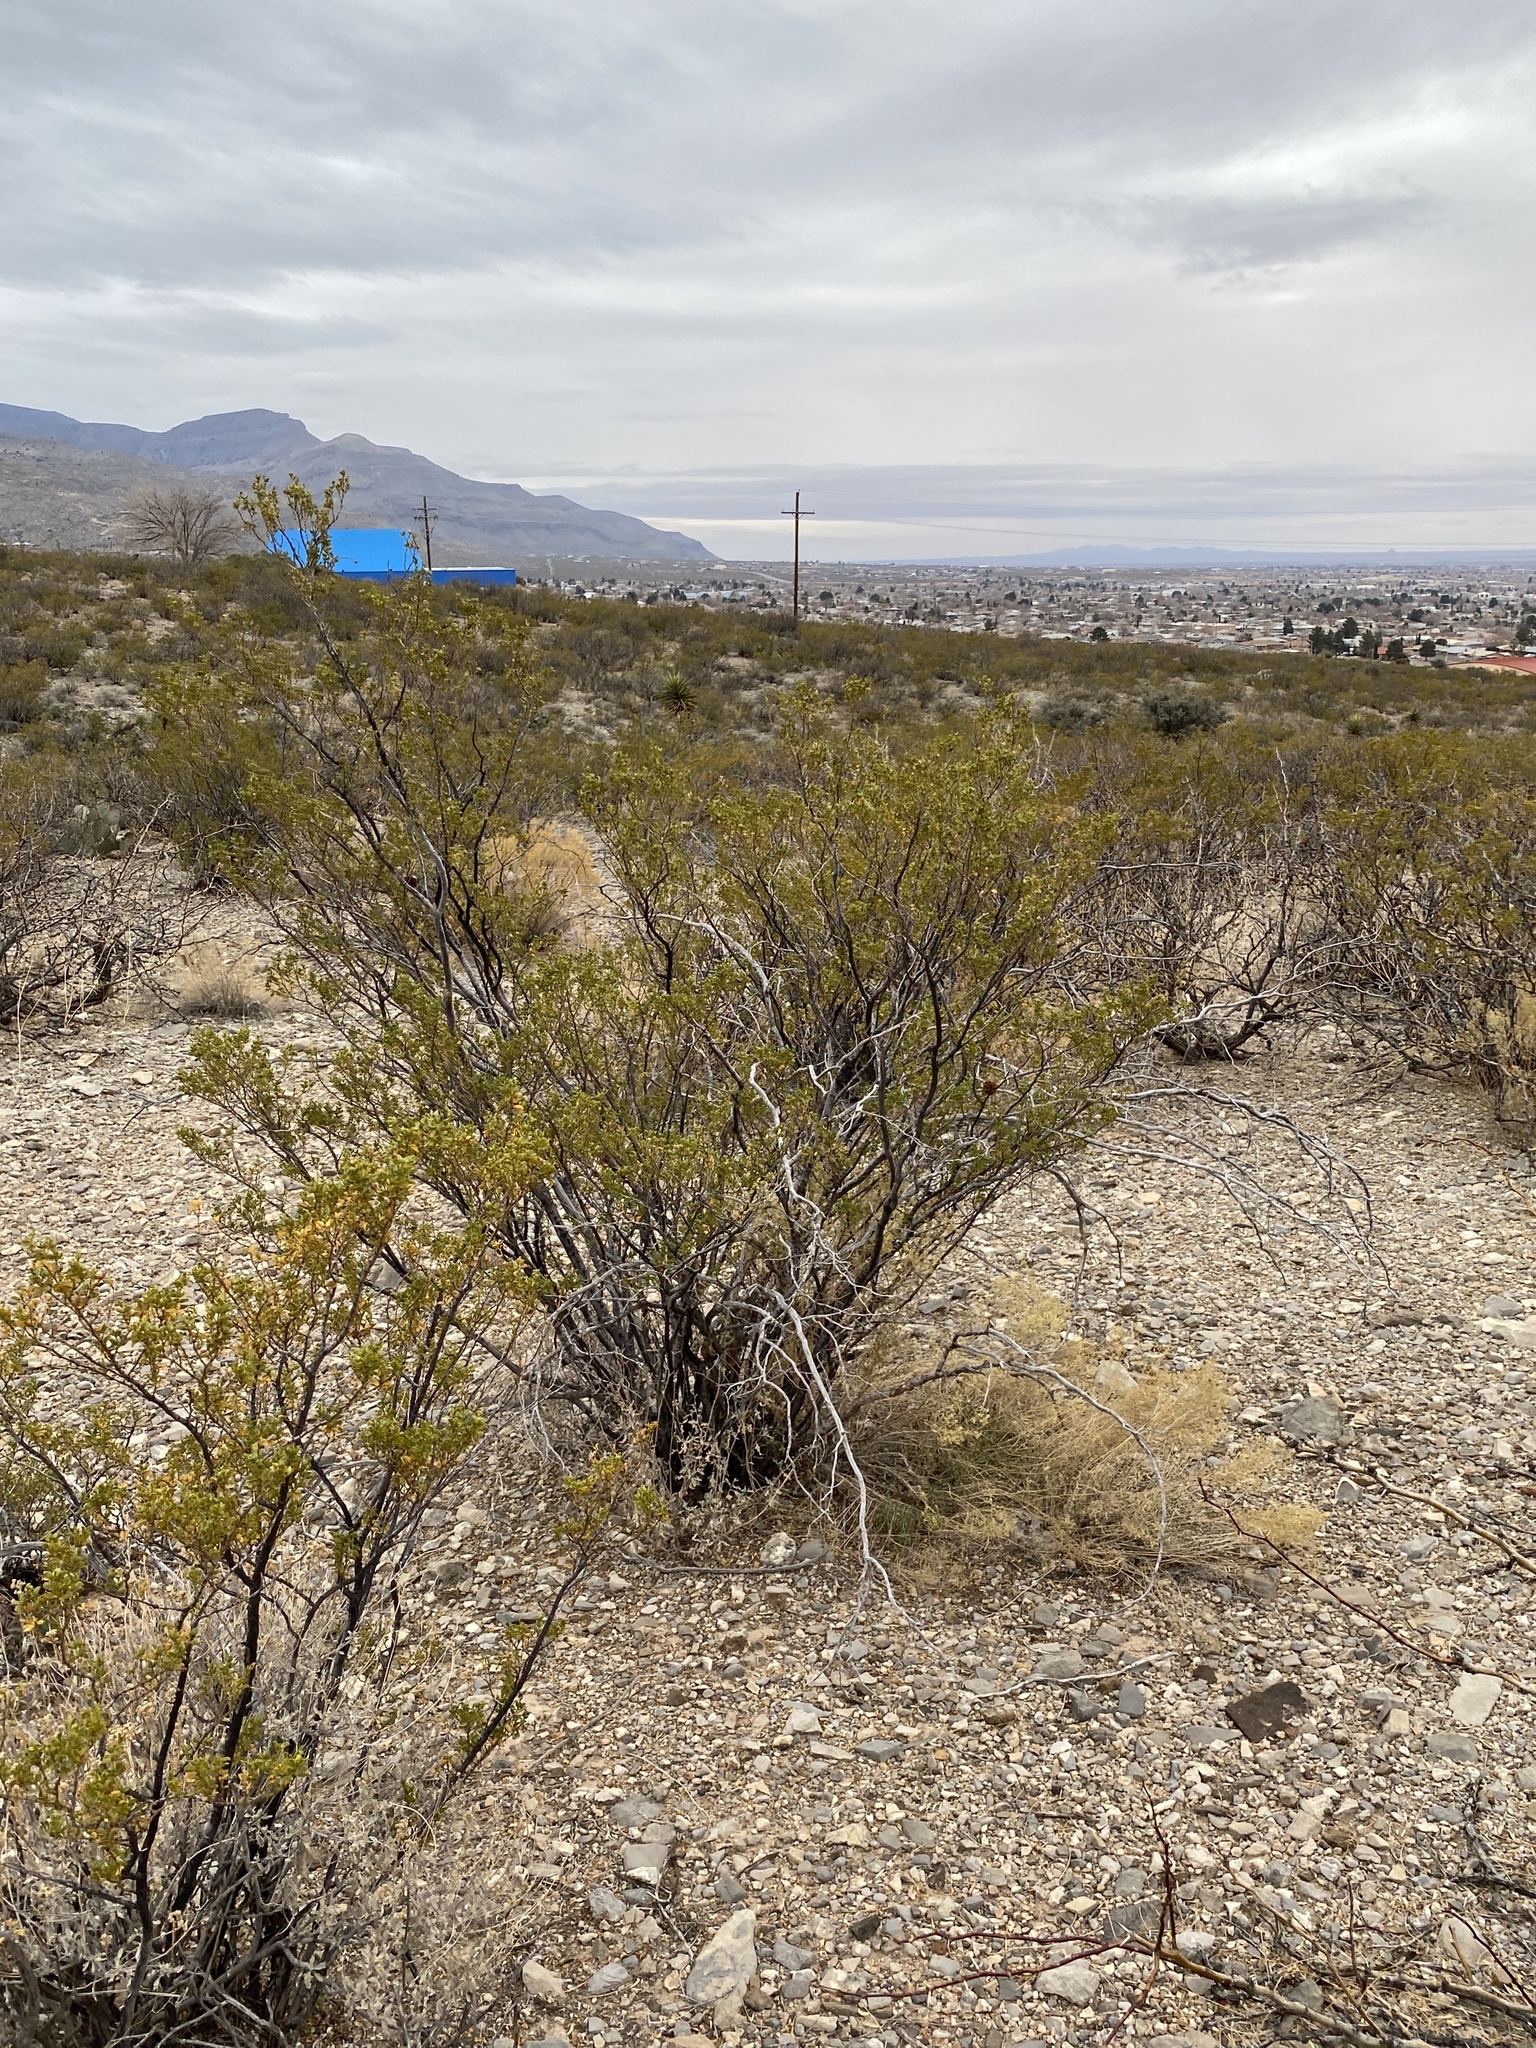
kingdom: Plantae
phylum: Tracheophyta
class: Magnoliopsida
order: Zygophyllales
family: Zygophyllaceae
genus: Larrea
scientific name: Larrea tridentata
